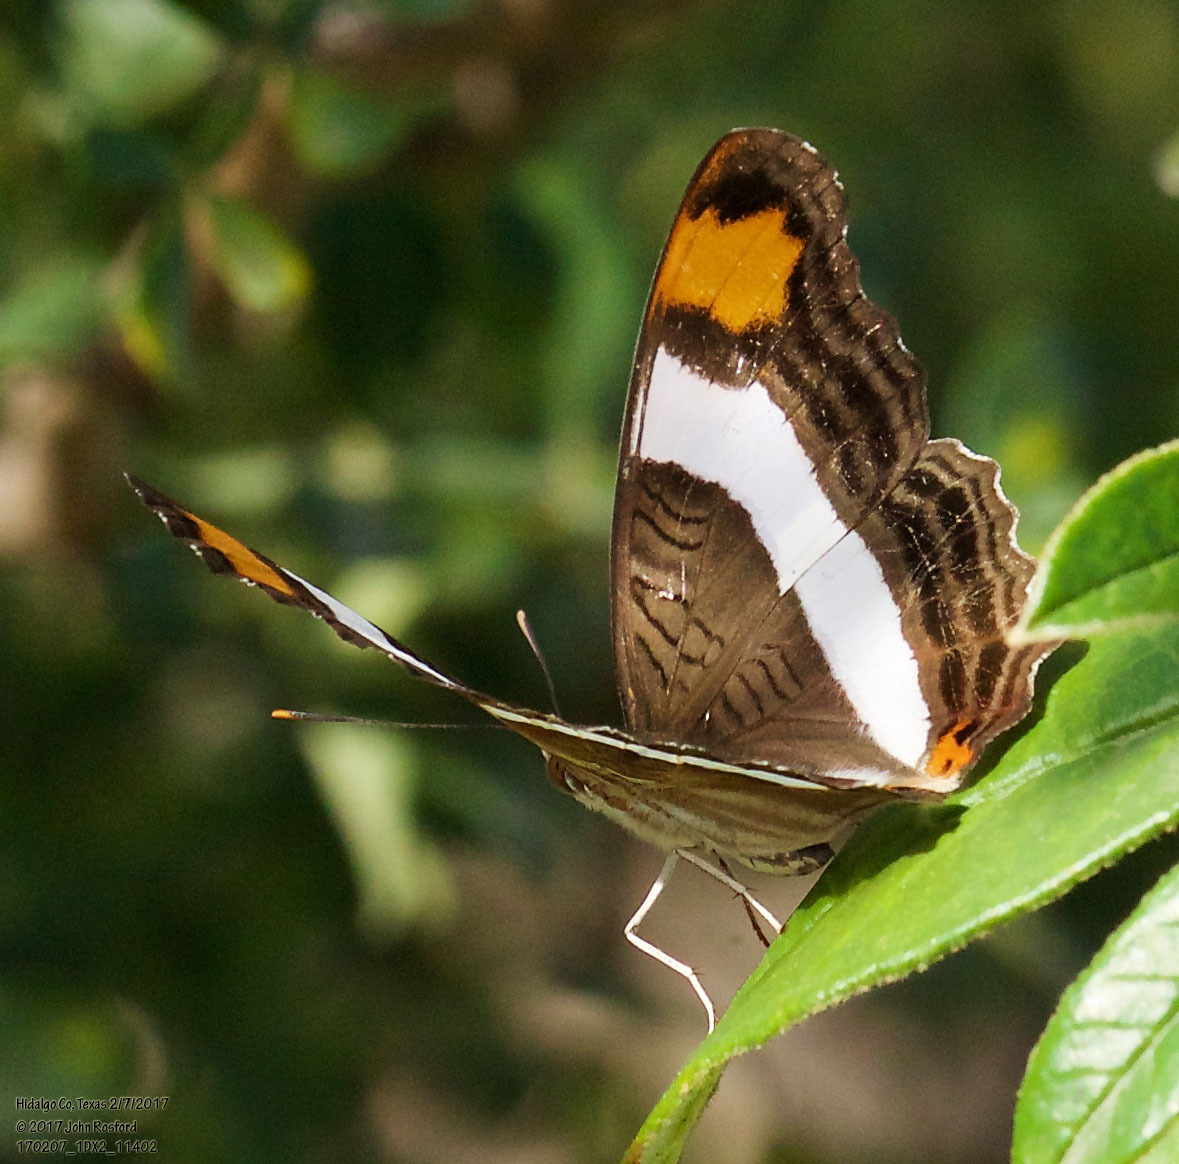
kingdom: Animalia
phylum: Arthropoda
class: Insecta
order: Lepidoptera
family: Nymphalidae
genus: Limenitis
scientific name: Limenitis fessonia
